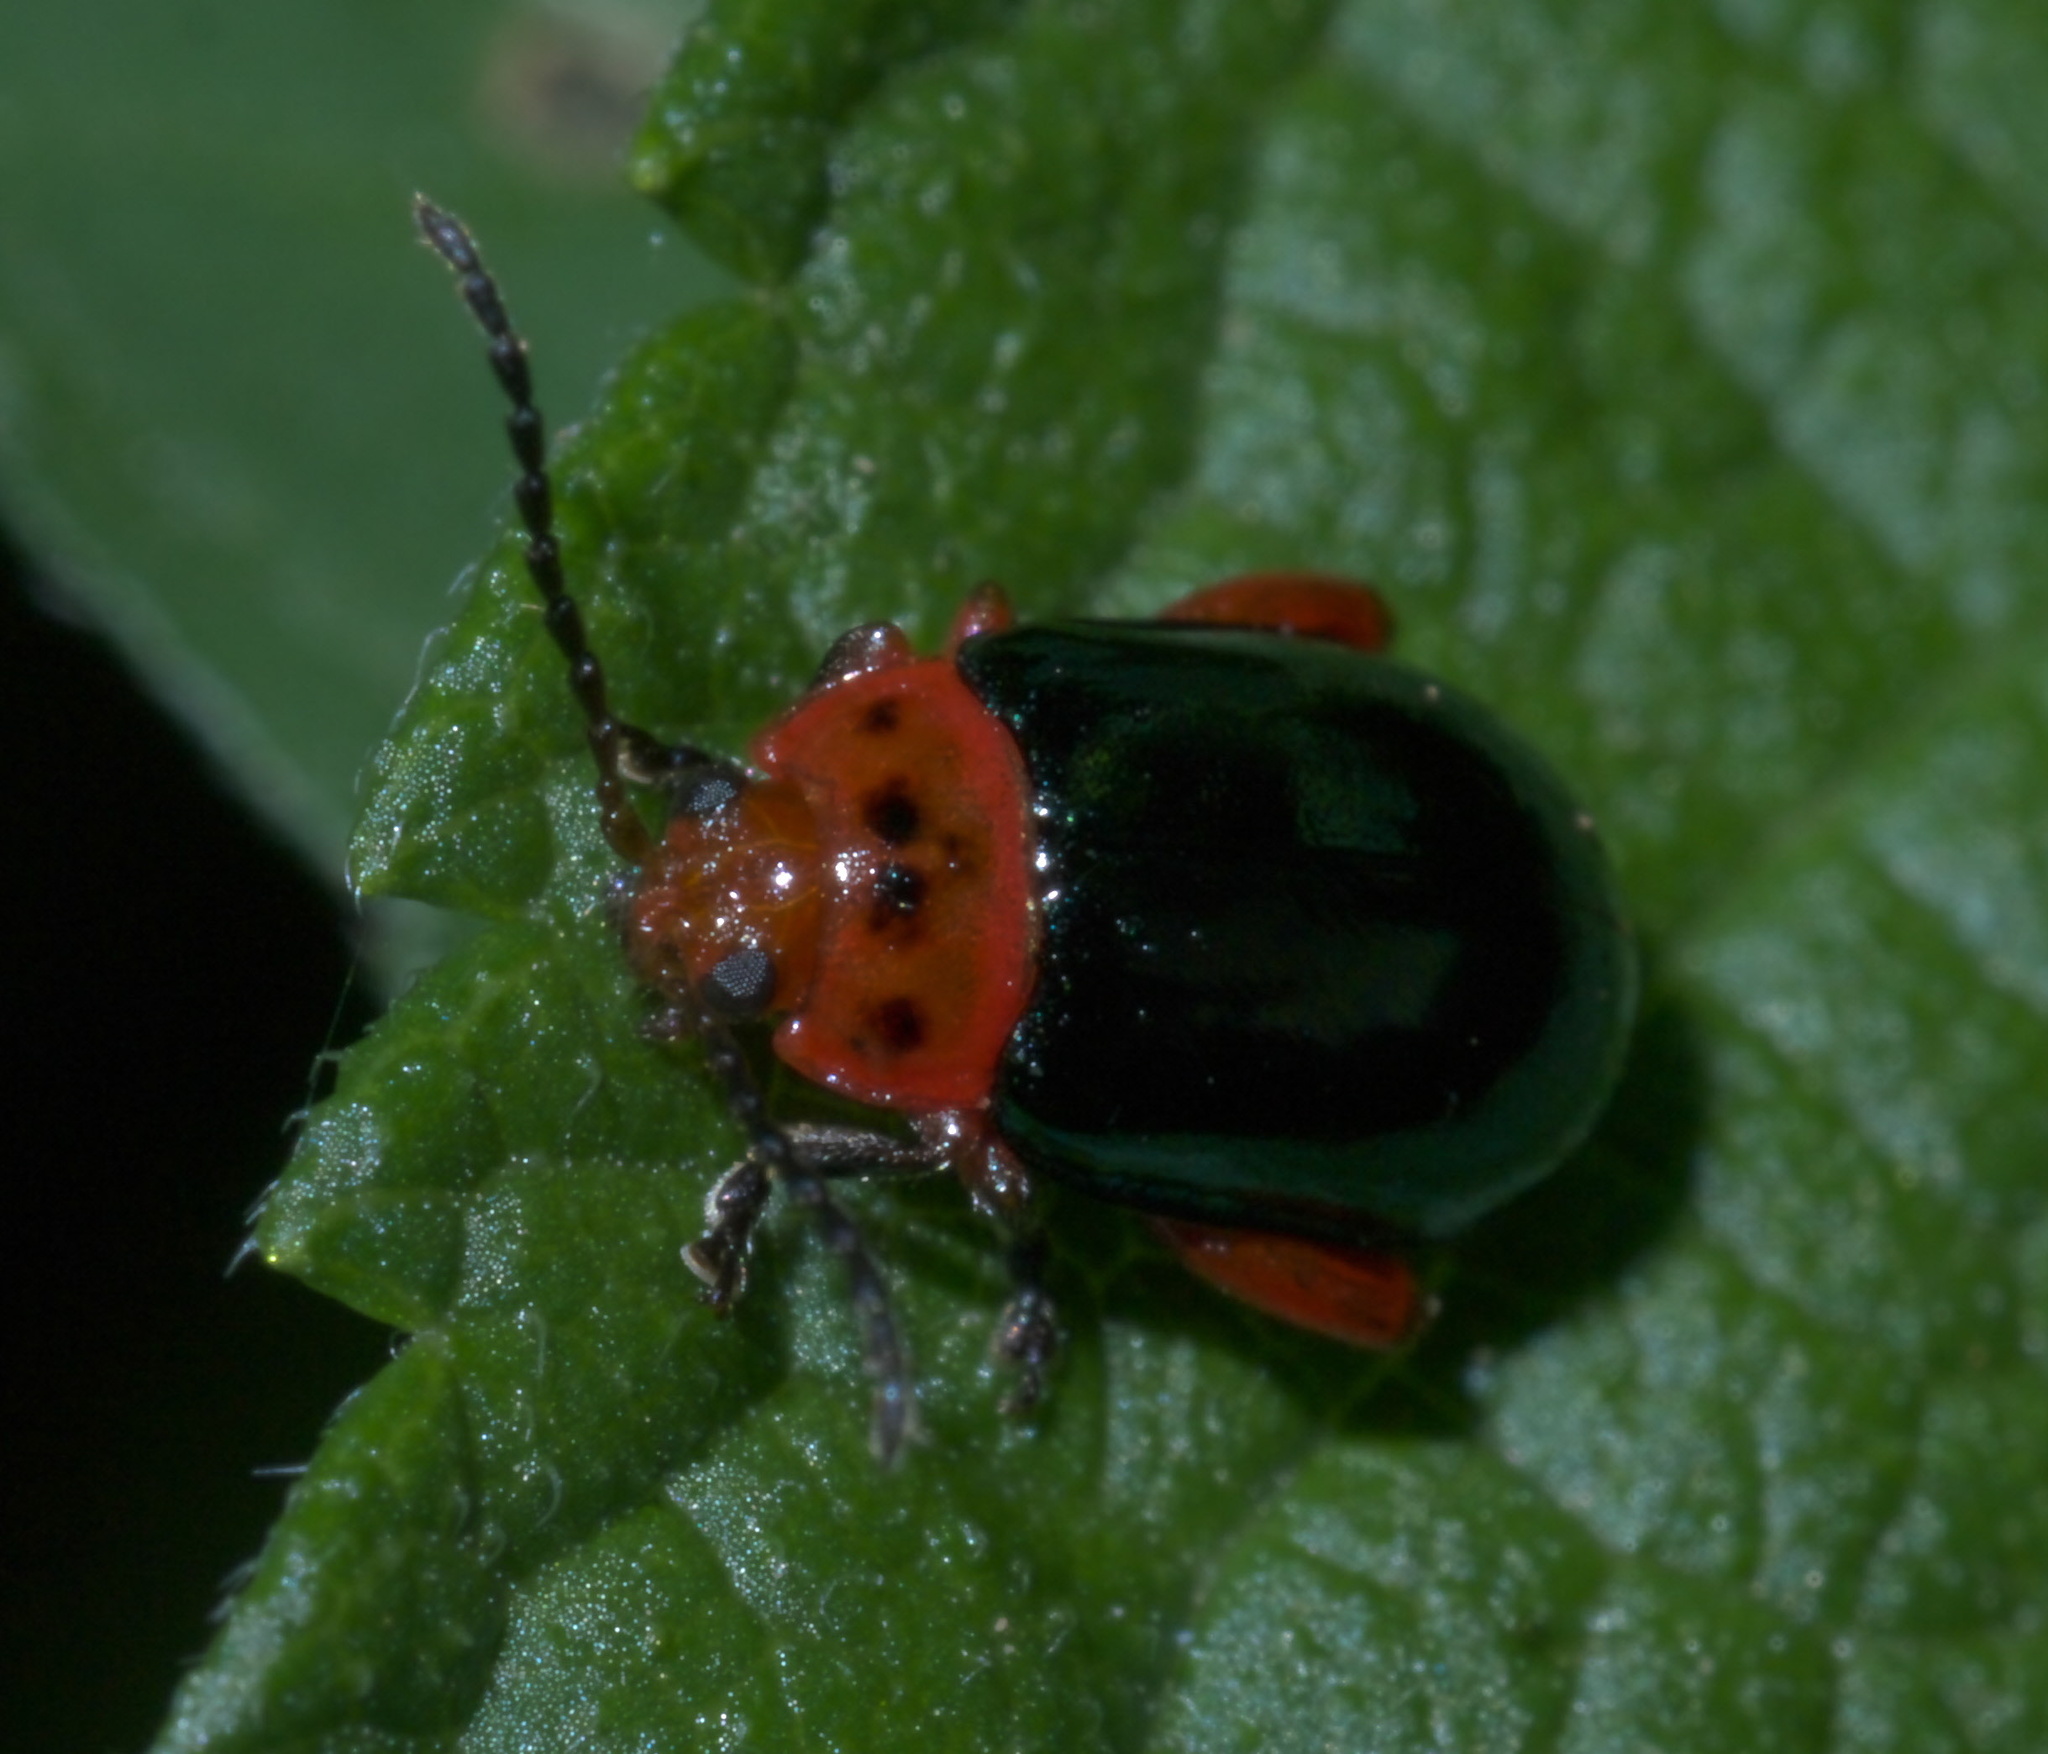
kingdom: Animalia
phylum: Arthropoda
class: Insecta
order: Coleoptera
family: Chrysomelidae
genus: Kuschelina
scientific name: Kuschelina gibbitarsa
